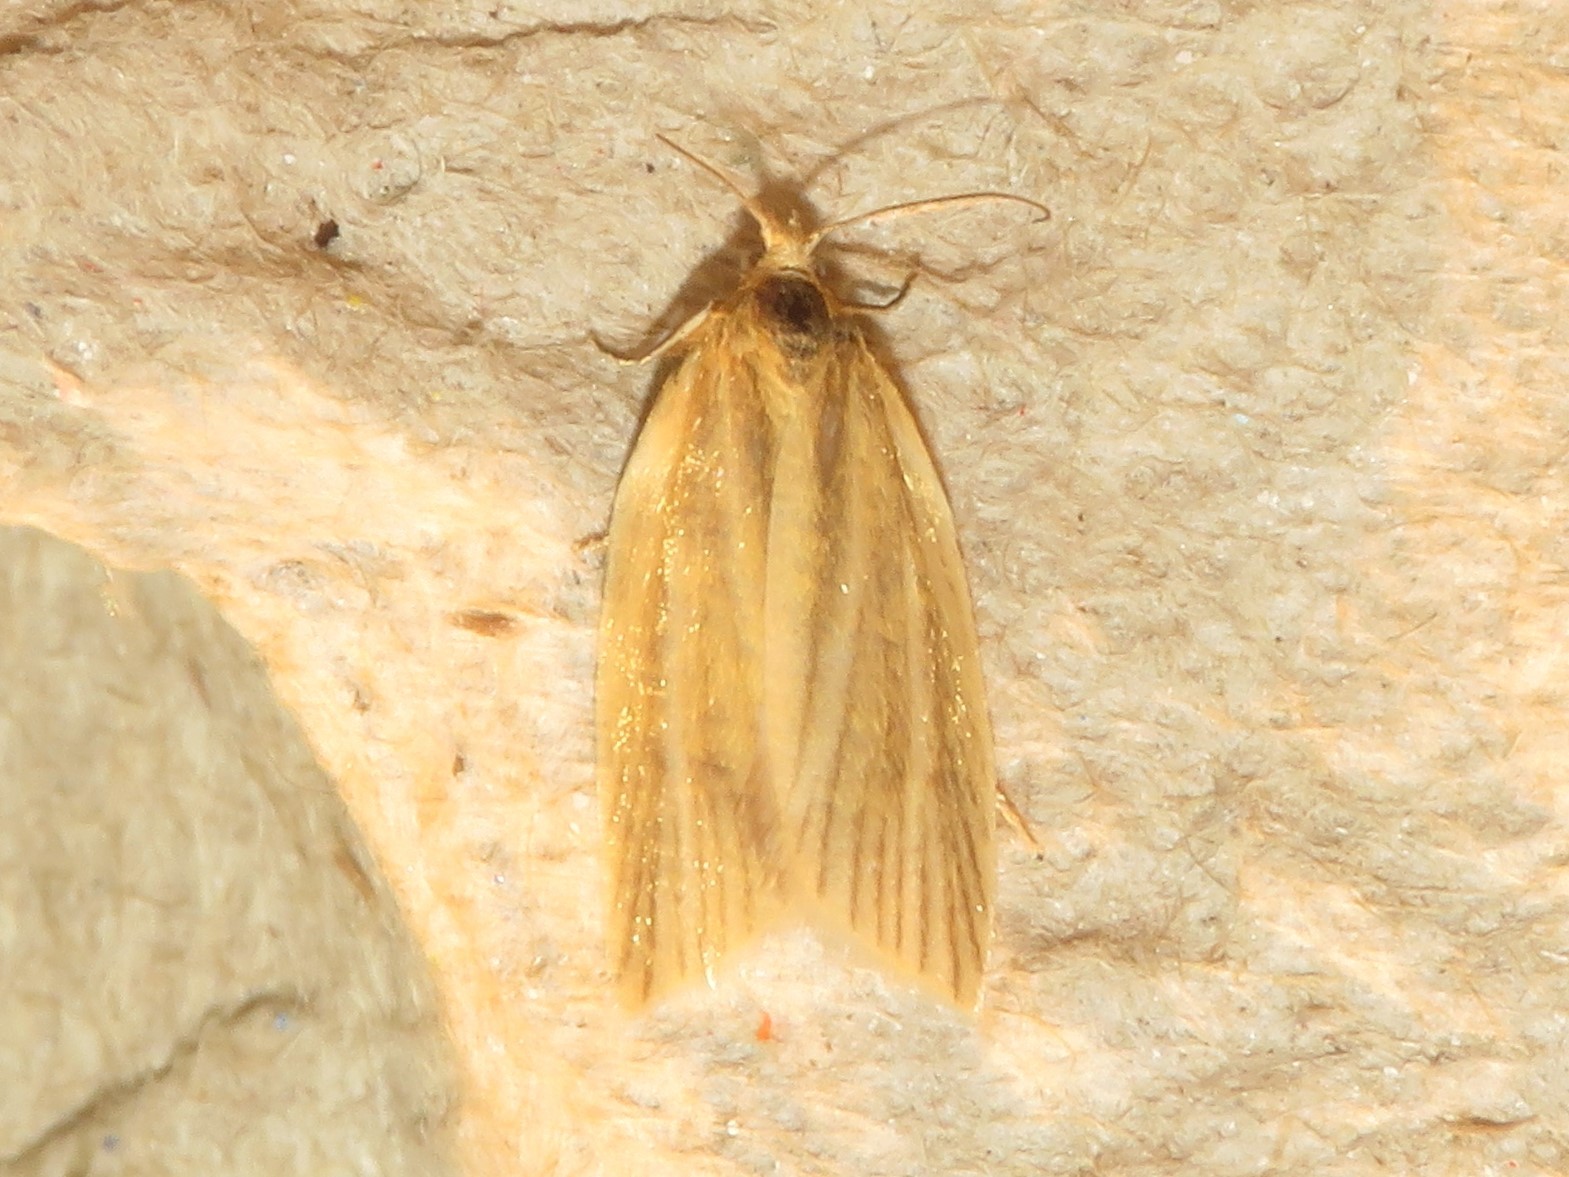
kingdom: Animalia
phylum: Arthropoda
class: Insecta
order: Lepidoptera
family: Tortricidae
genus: Clepsis
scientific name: Clepsis clemensiana
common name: Clemens' clepsis moth
